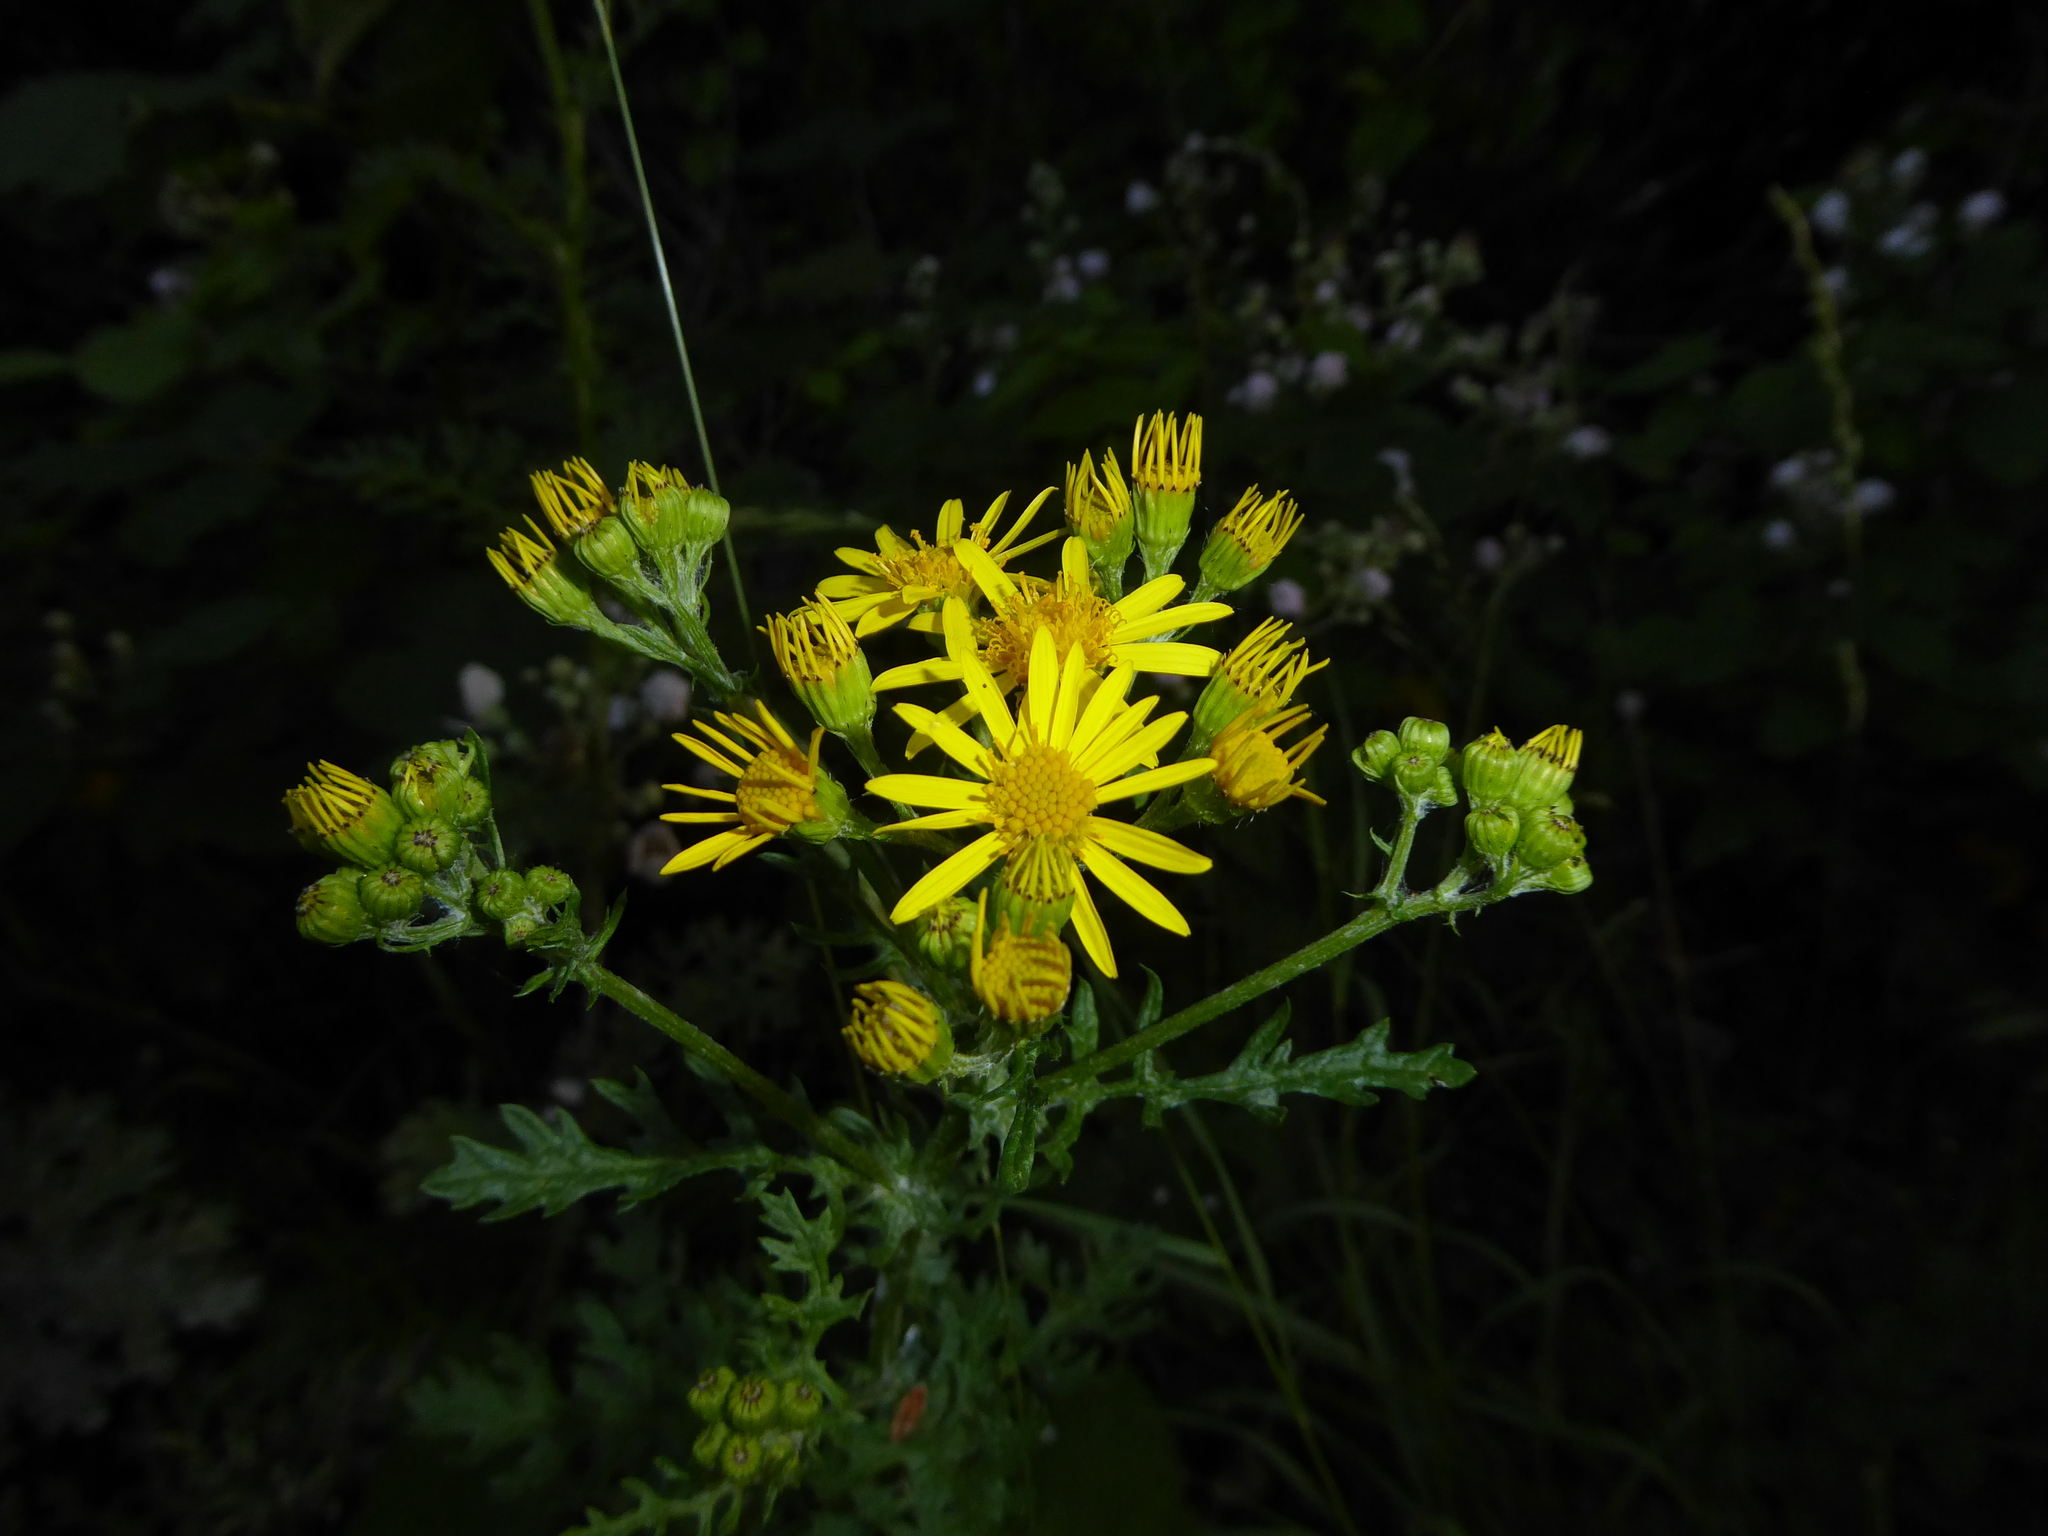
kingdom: Plantae
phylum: Tracheophyta
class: Magnoliopsida
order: Asterales
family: Asteraceae
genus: Jacobaea
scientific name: Jacobaea vulgaris
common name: Stinking willie
